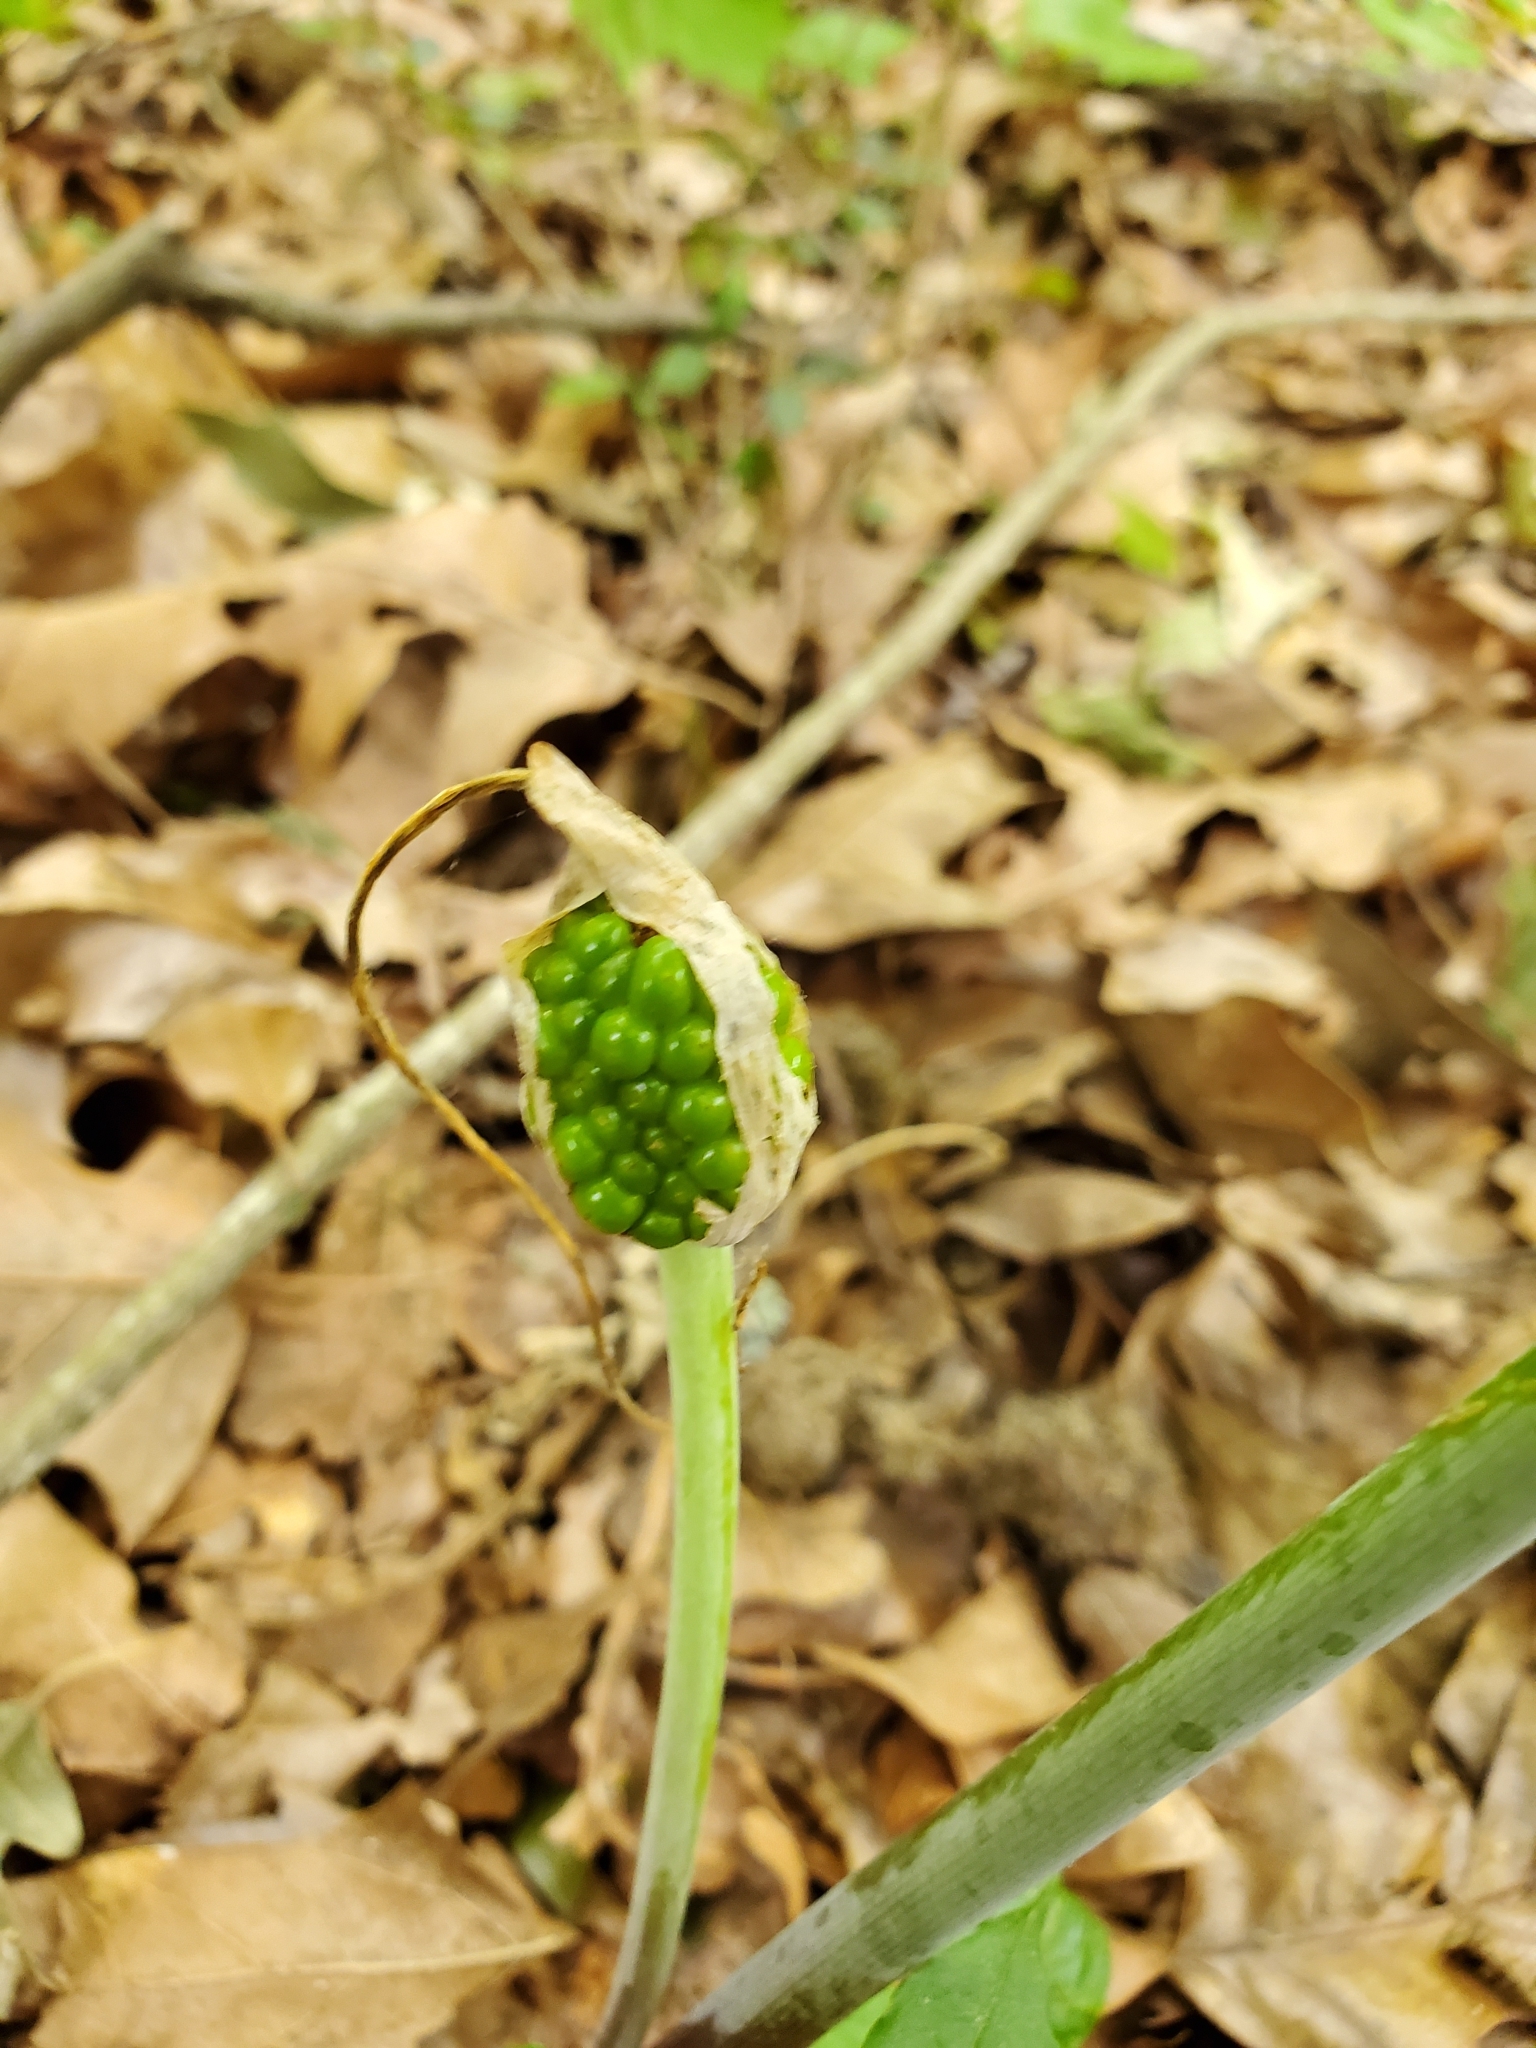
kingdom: Plantae
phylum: Tracheophyta
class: Liliopsida
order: Alismatales
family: Araceae
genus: Arisaema
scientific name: Arisaema dracontium
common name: Dragon-arum
